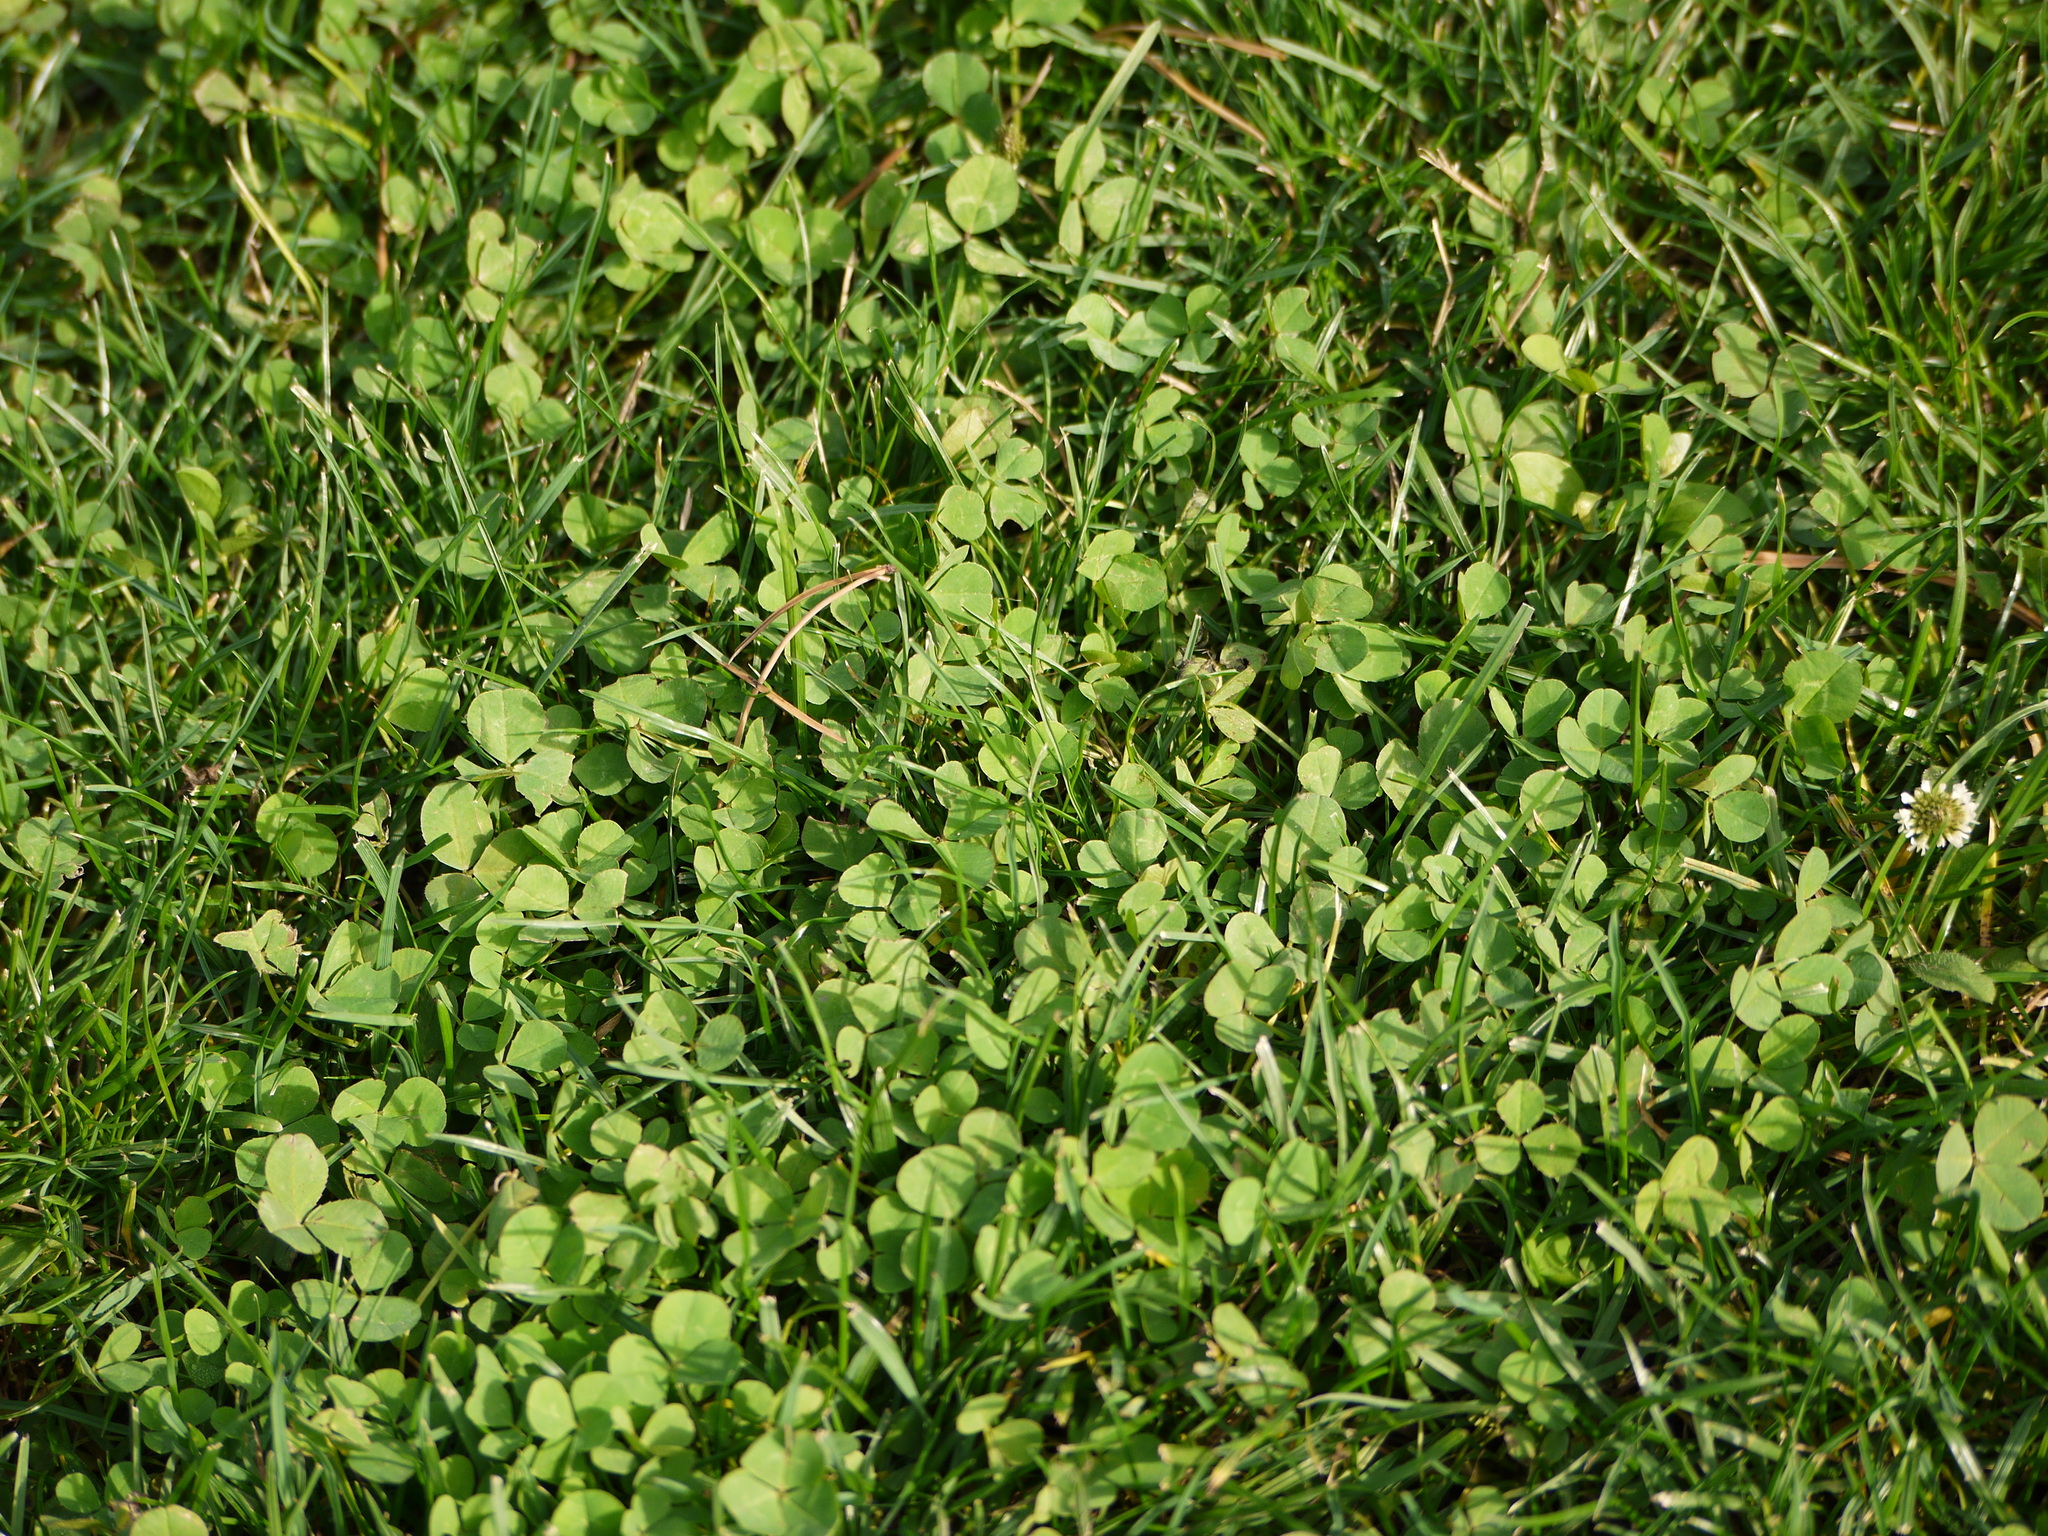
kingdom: Plantae
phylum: Tracheophyta
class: Magnoliopsida
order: Fabales
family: Fabaceae
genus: Trifolium
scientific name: Trifolium repens
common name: White clover
